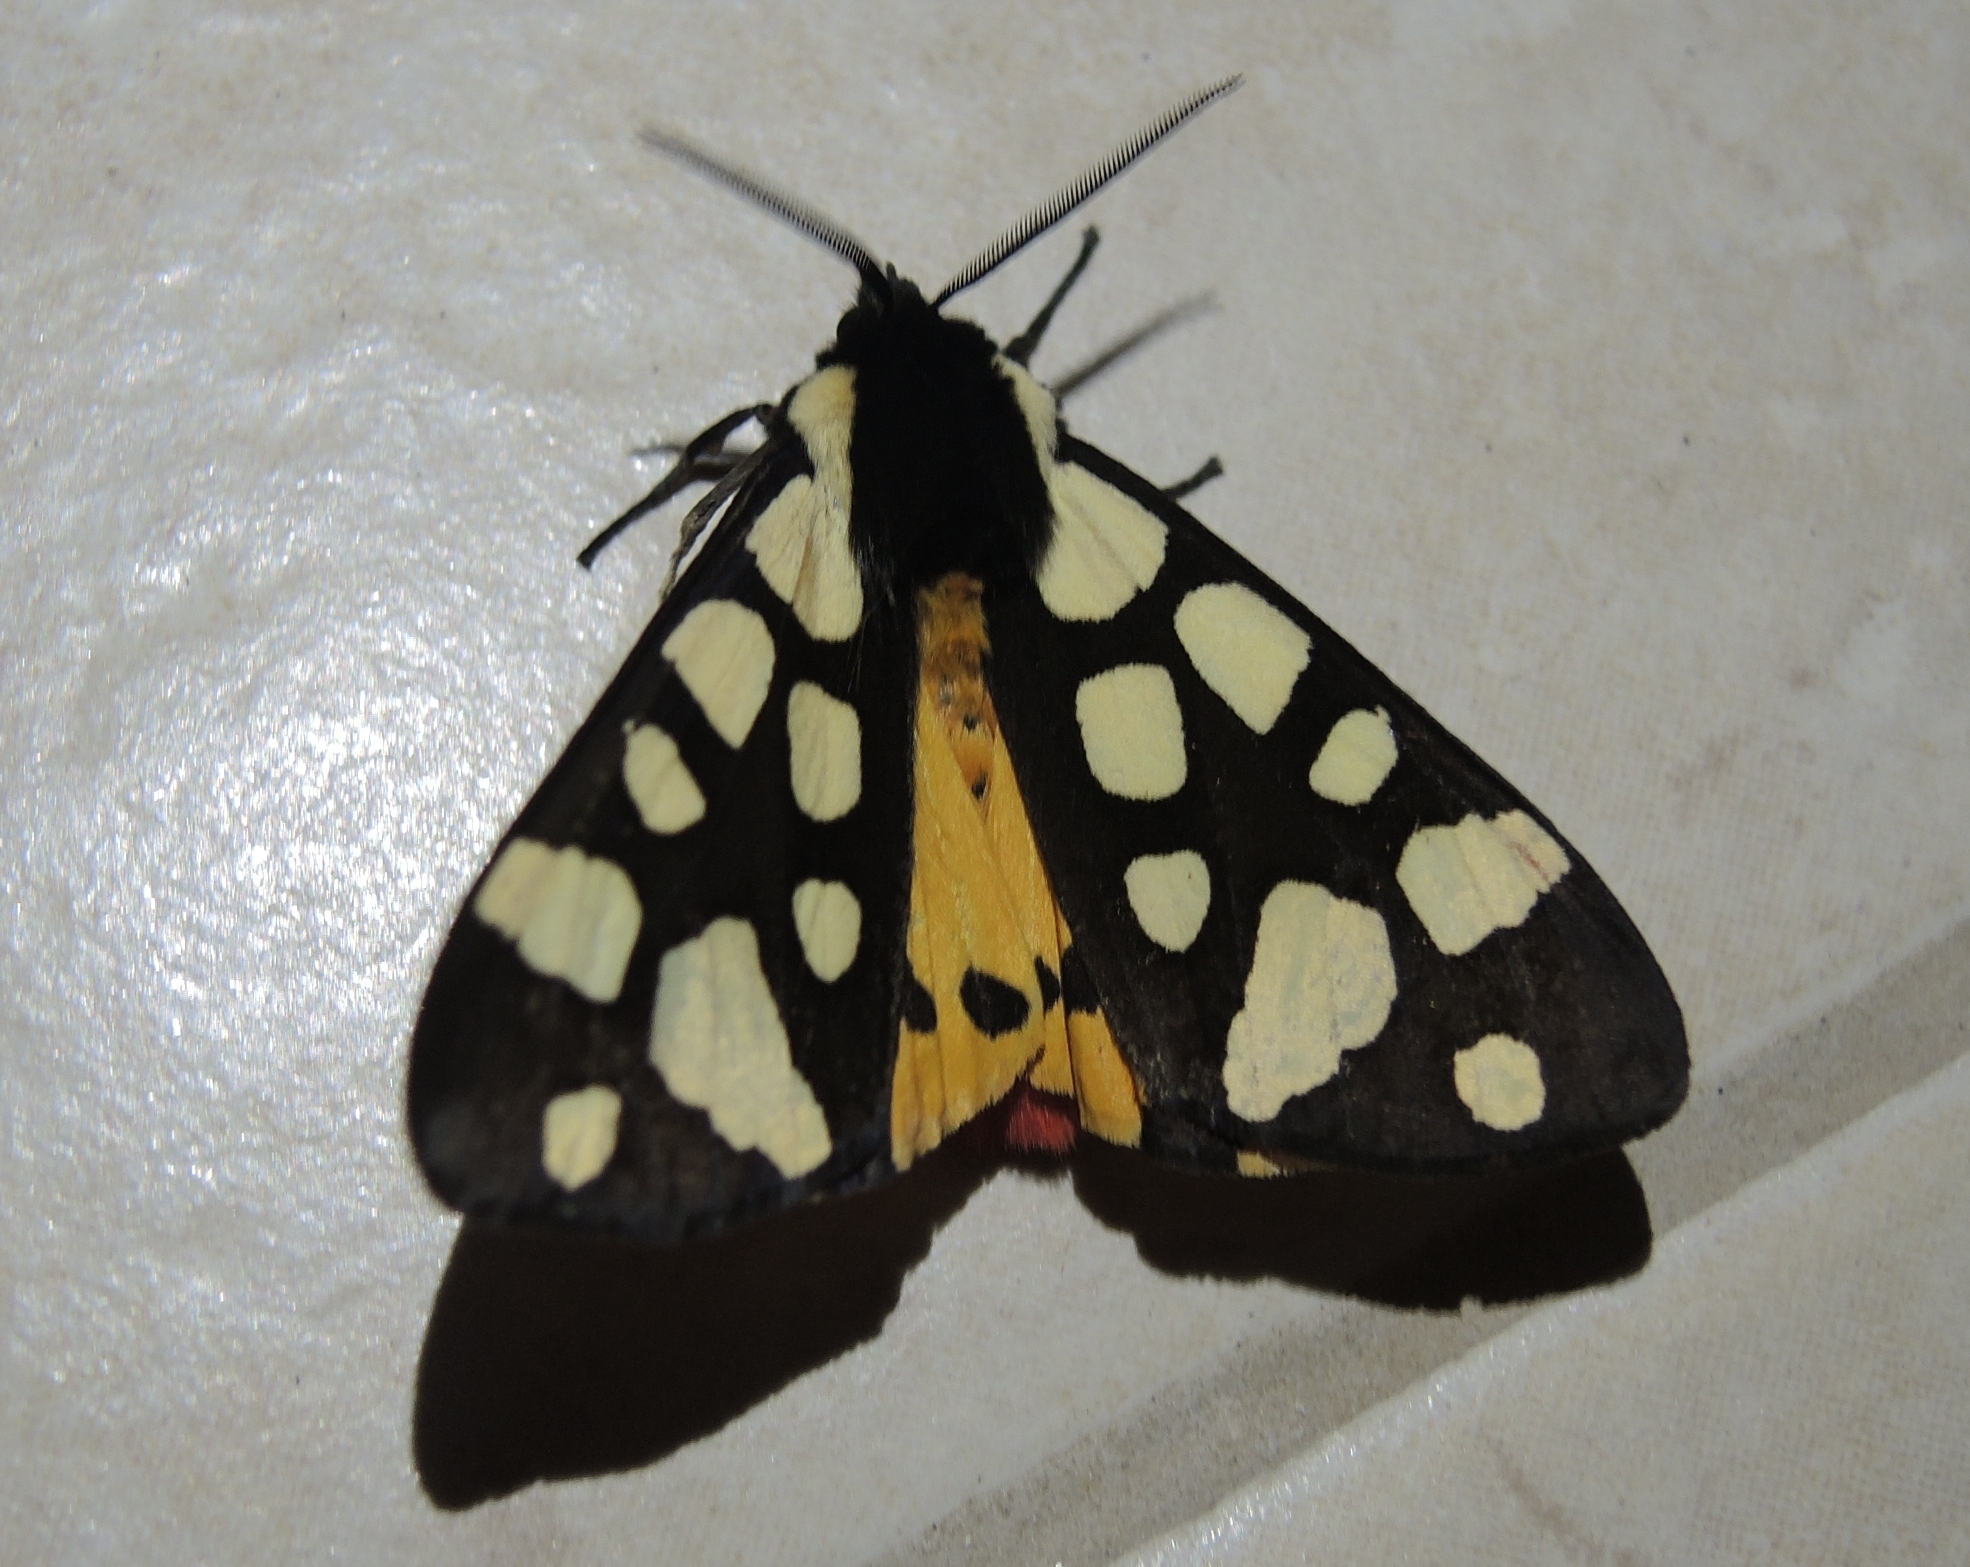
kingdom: Animalia
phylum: Arthropoda
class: Insecta
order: Lepidoptera
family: Erebidae
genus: Epicallia
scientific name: Epicallia villica
